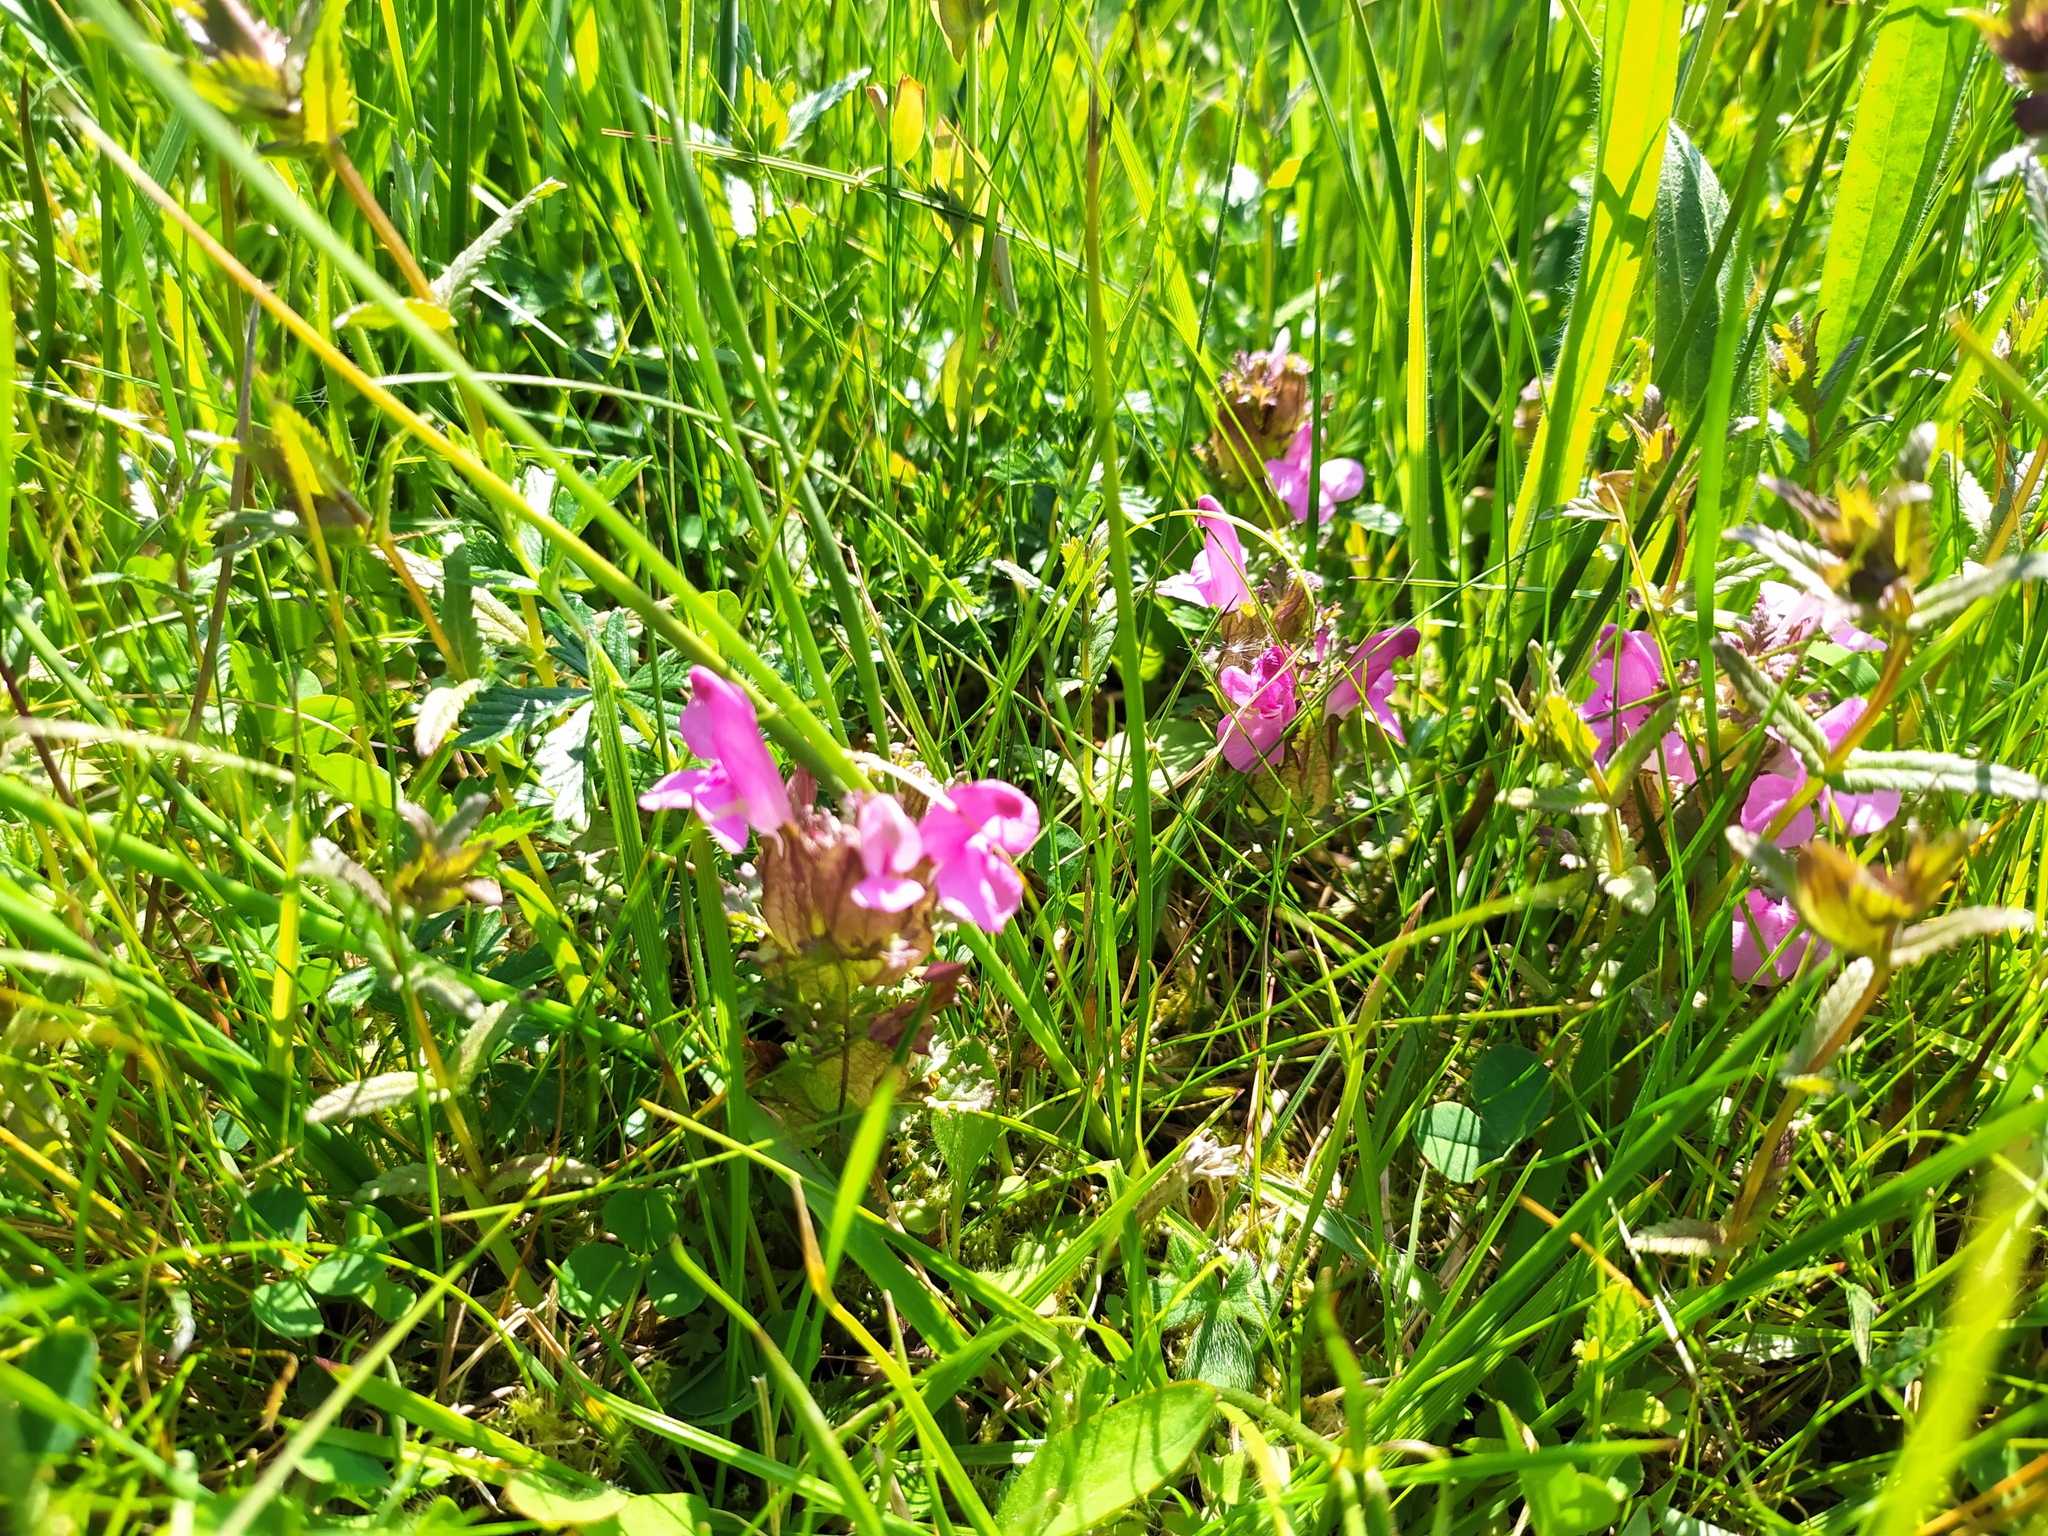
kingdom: Plantae
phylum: Tracheophyta
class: Magnoliopsida
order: Lamiales
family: Orobanchaceae
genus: Pedicularis
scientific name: Pedicularis sylvatica
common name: Lousewort
